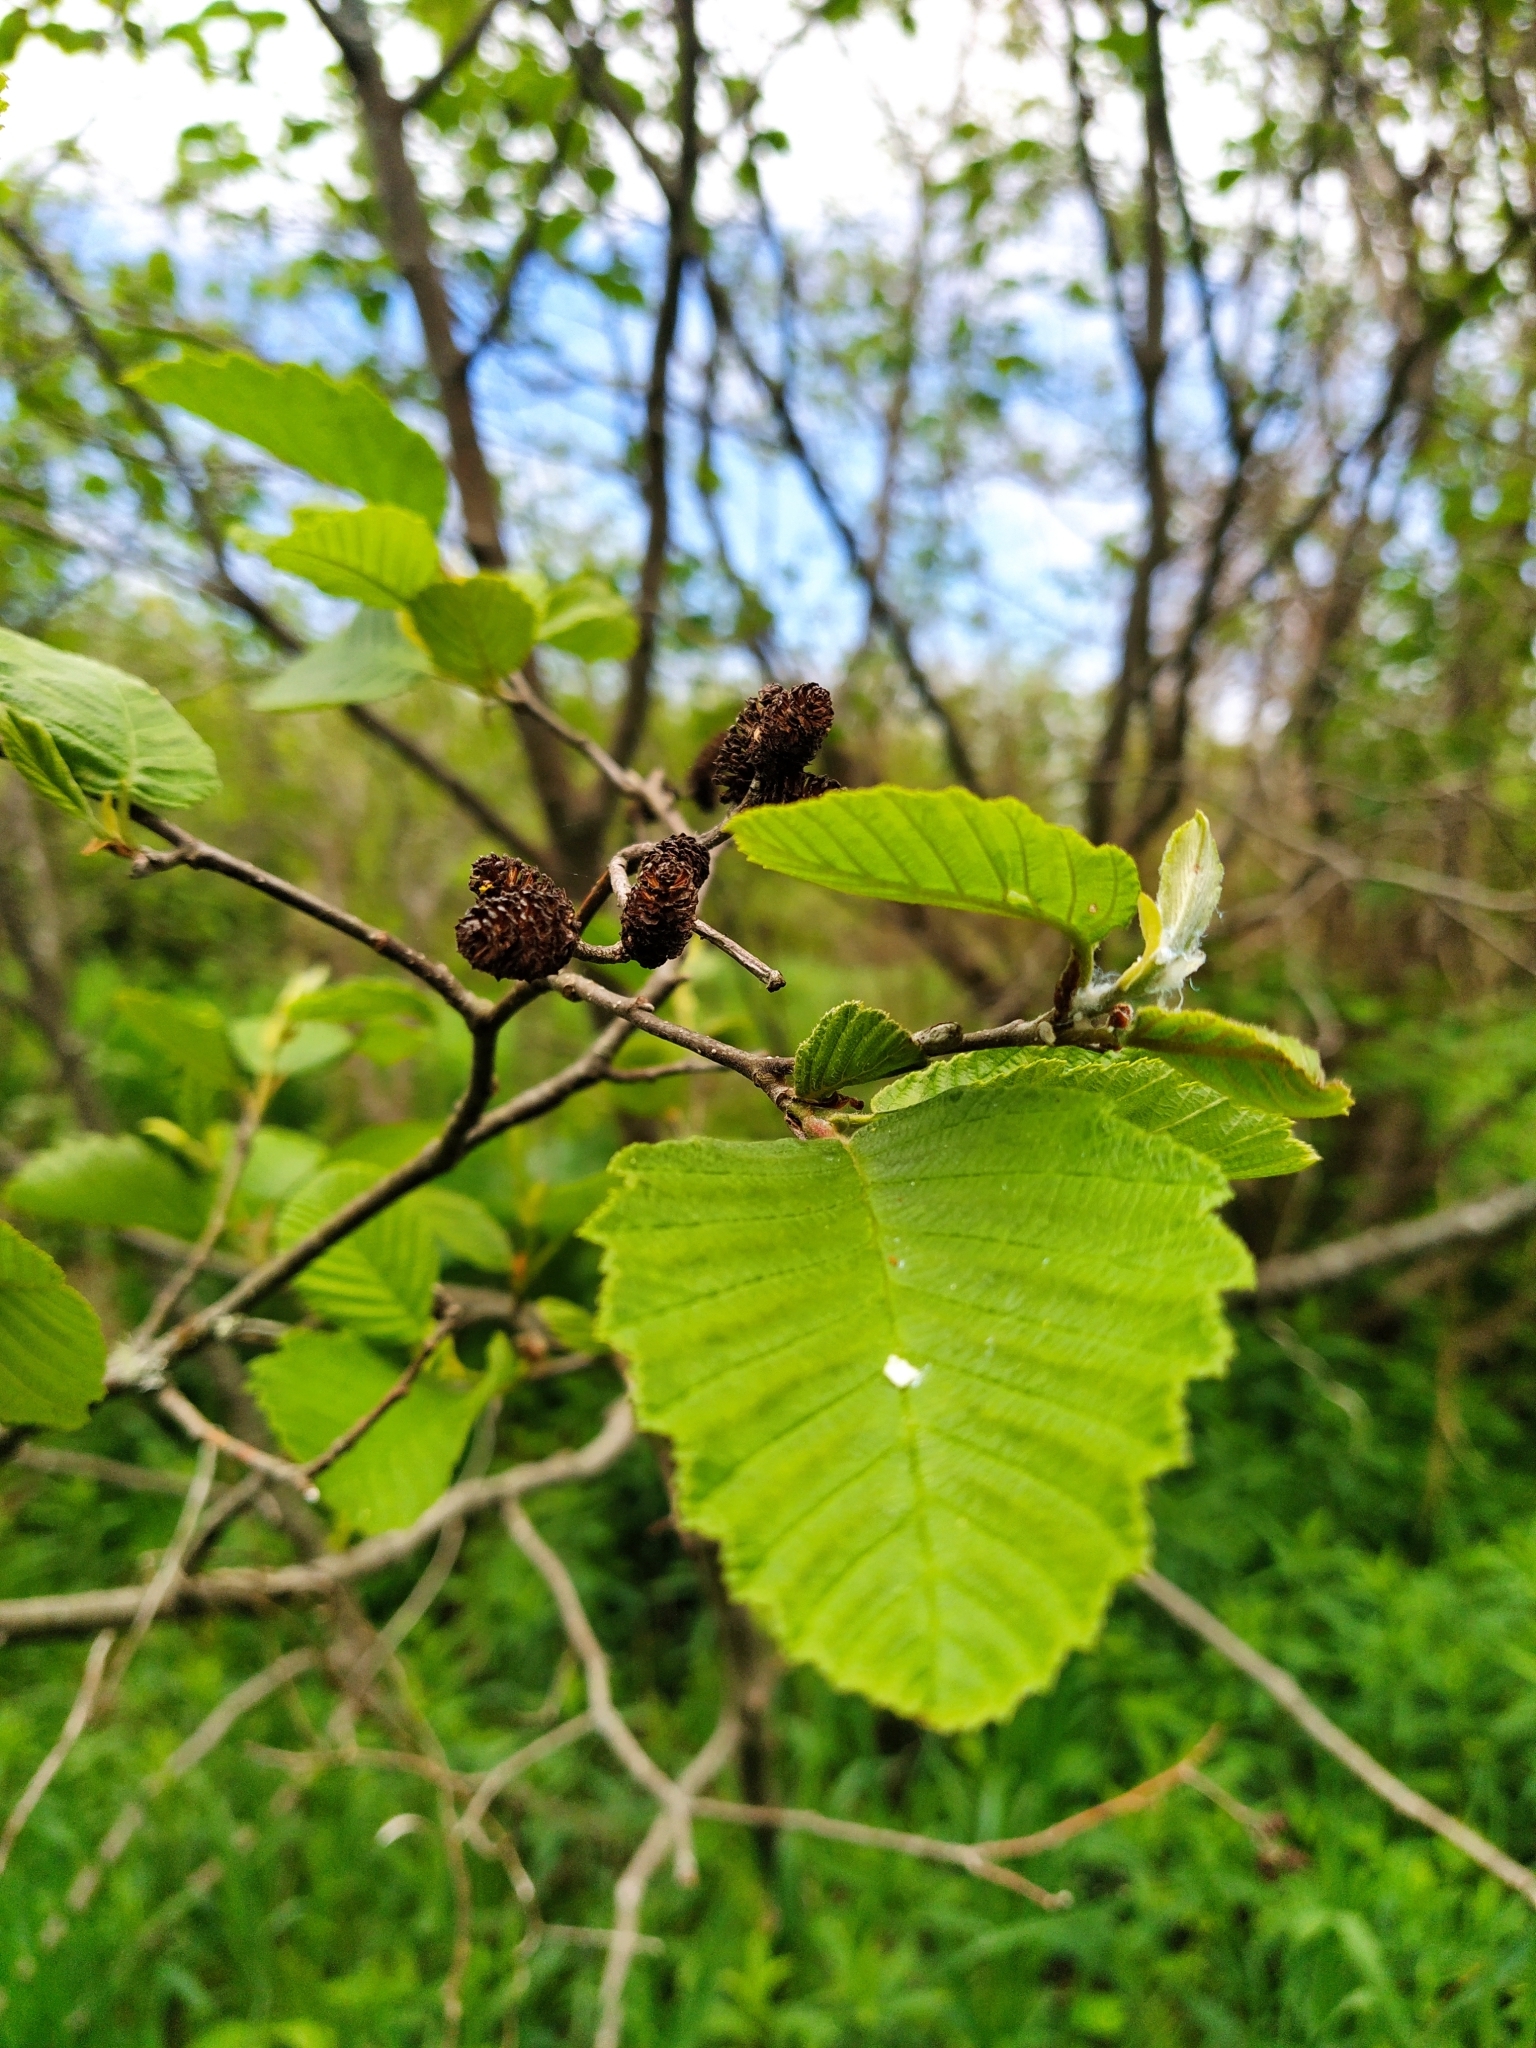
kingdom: Plantae
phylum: Tracheophyta
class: Magnoliopsida
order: Fagales
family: Betulaceae
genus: Alnus
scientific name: Alnus incana
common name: Grey alder
